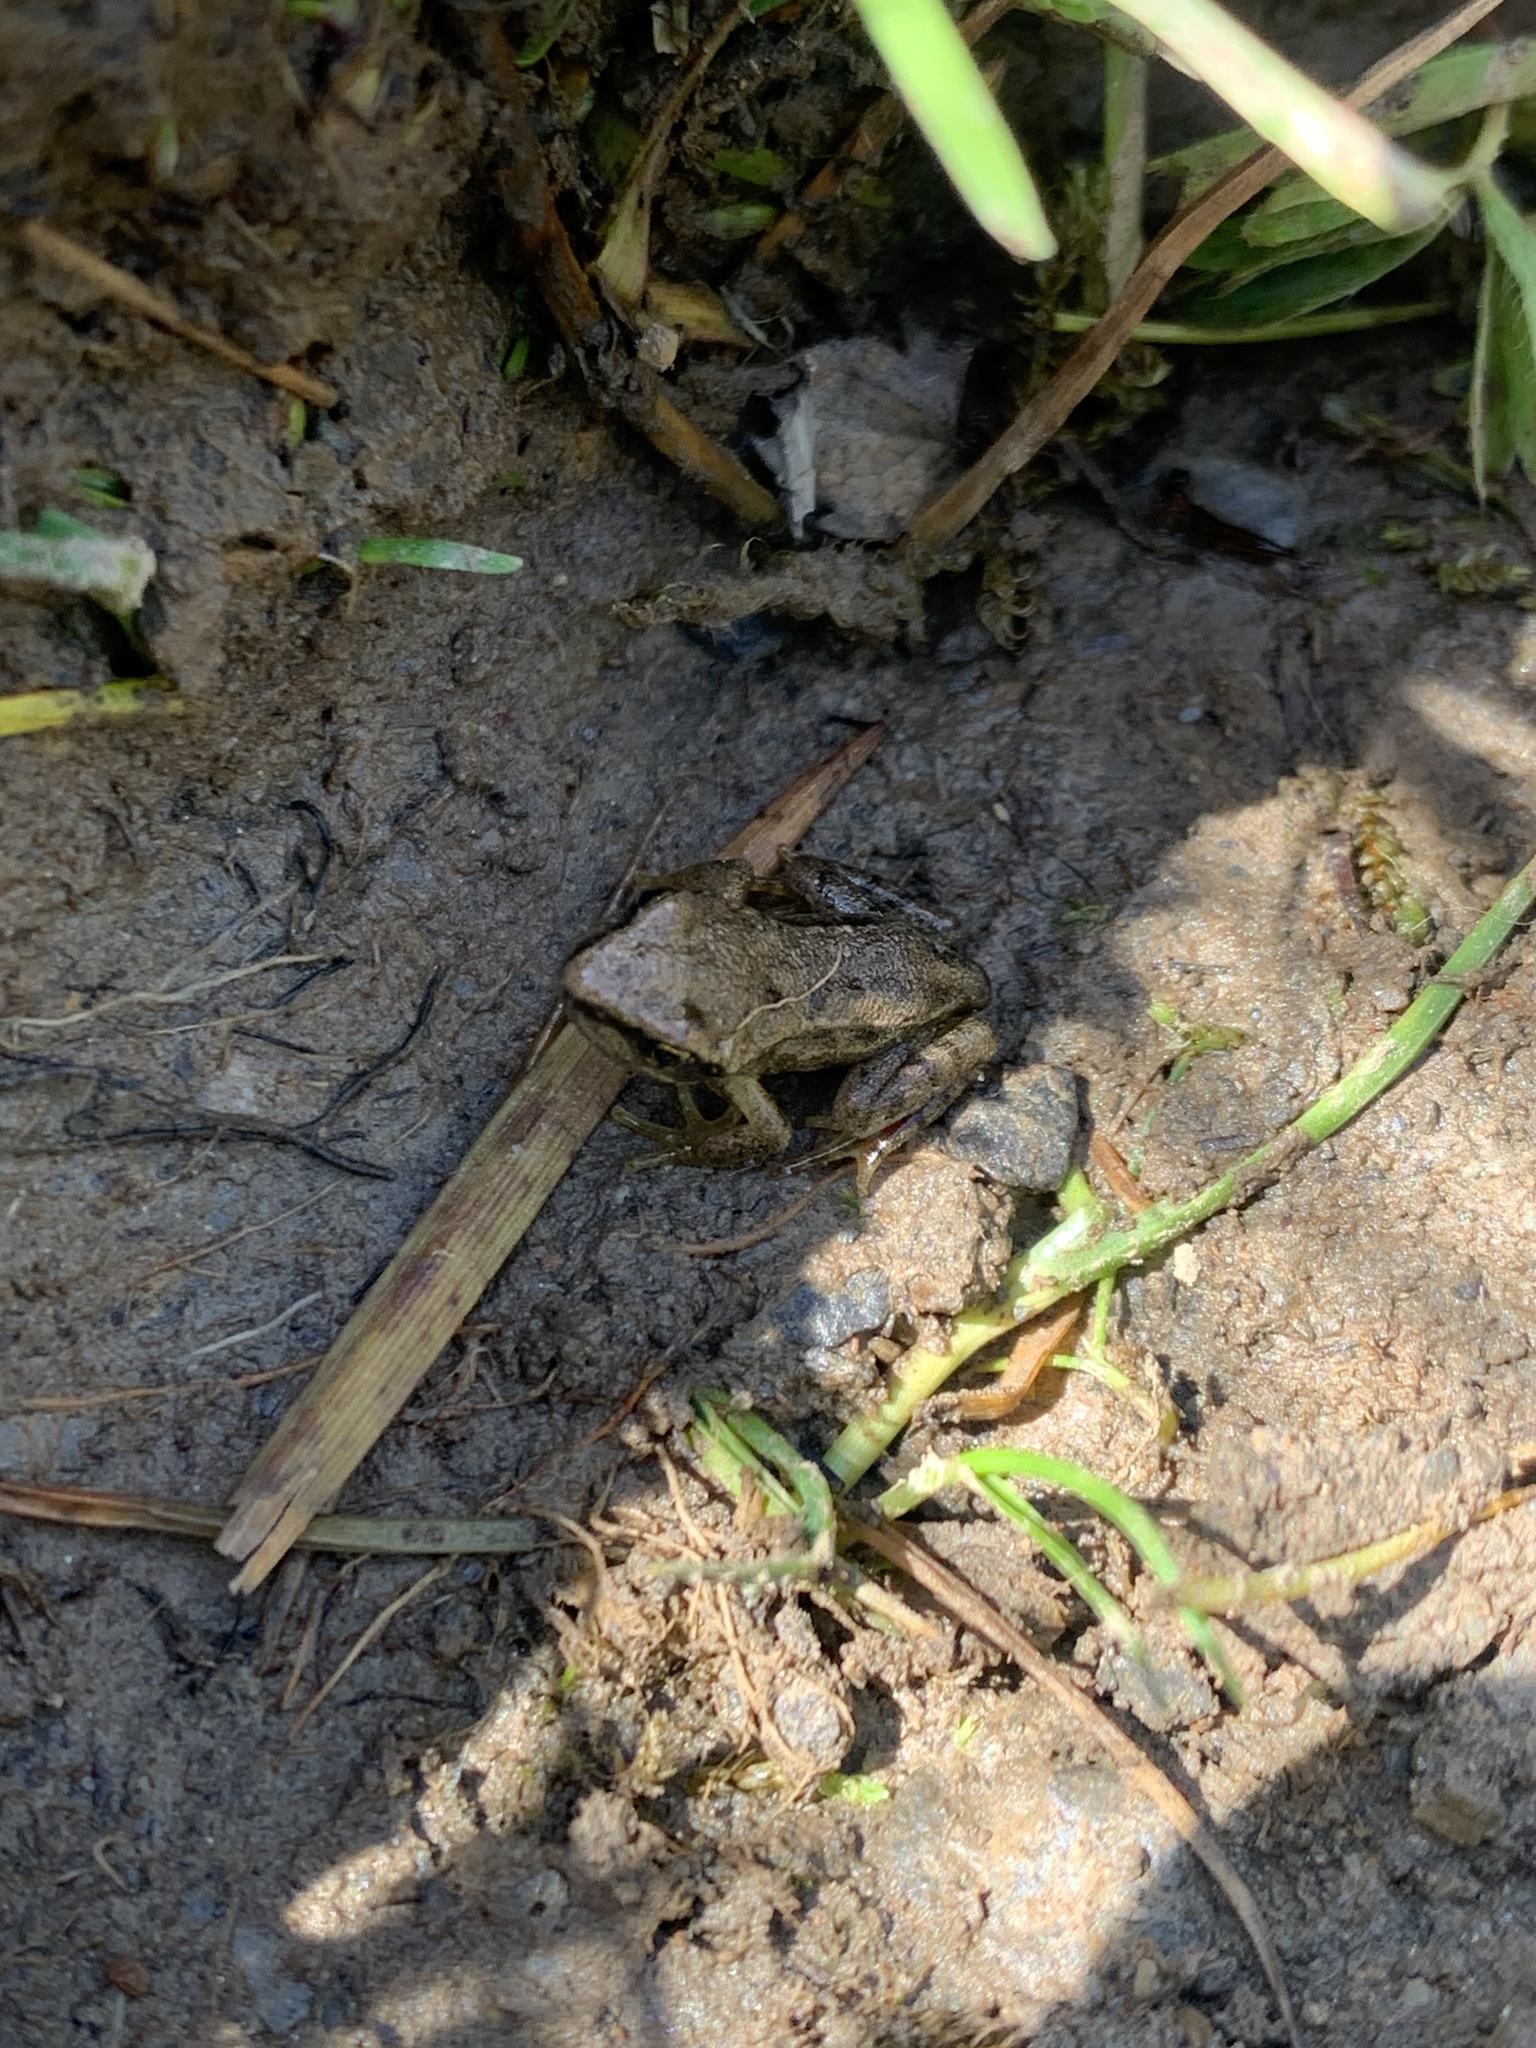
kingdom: Animalia
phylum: Chordata
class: Amphibia
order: Anura
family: Ranidae
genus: Rana
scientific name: Rana temporaria
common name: Common frog
